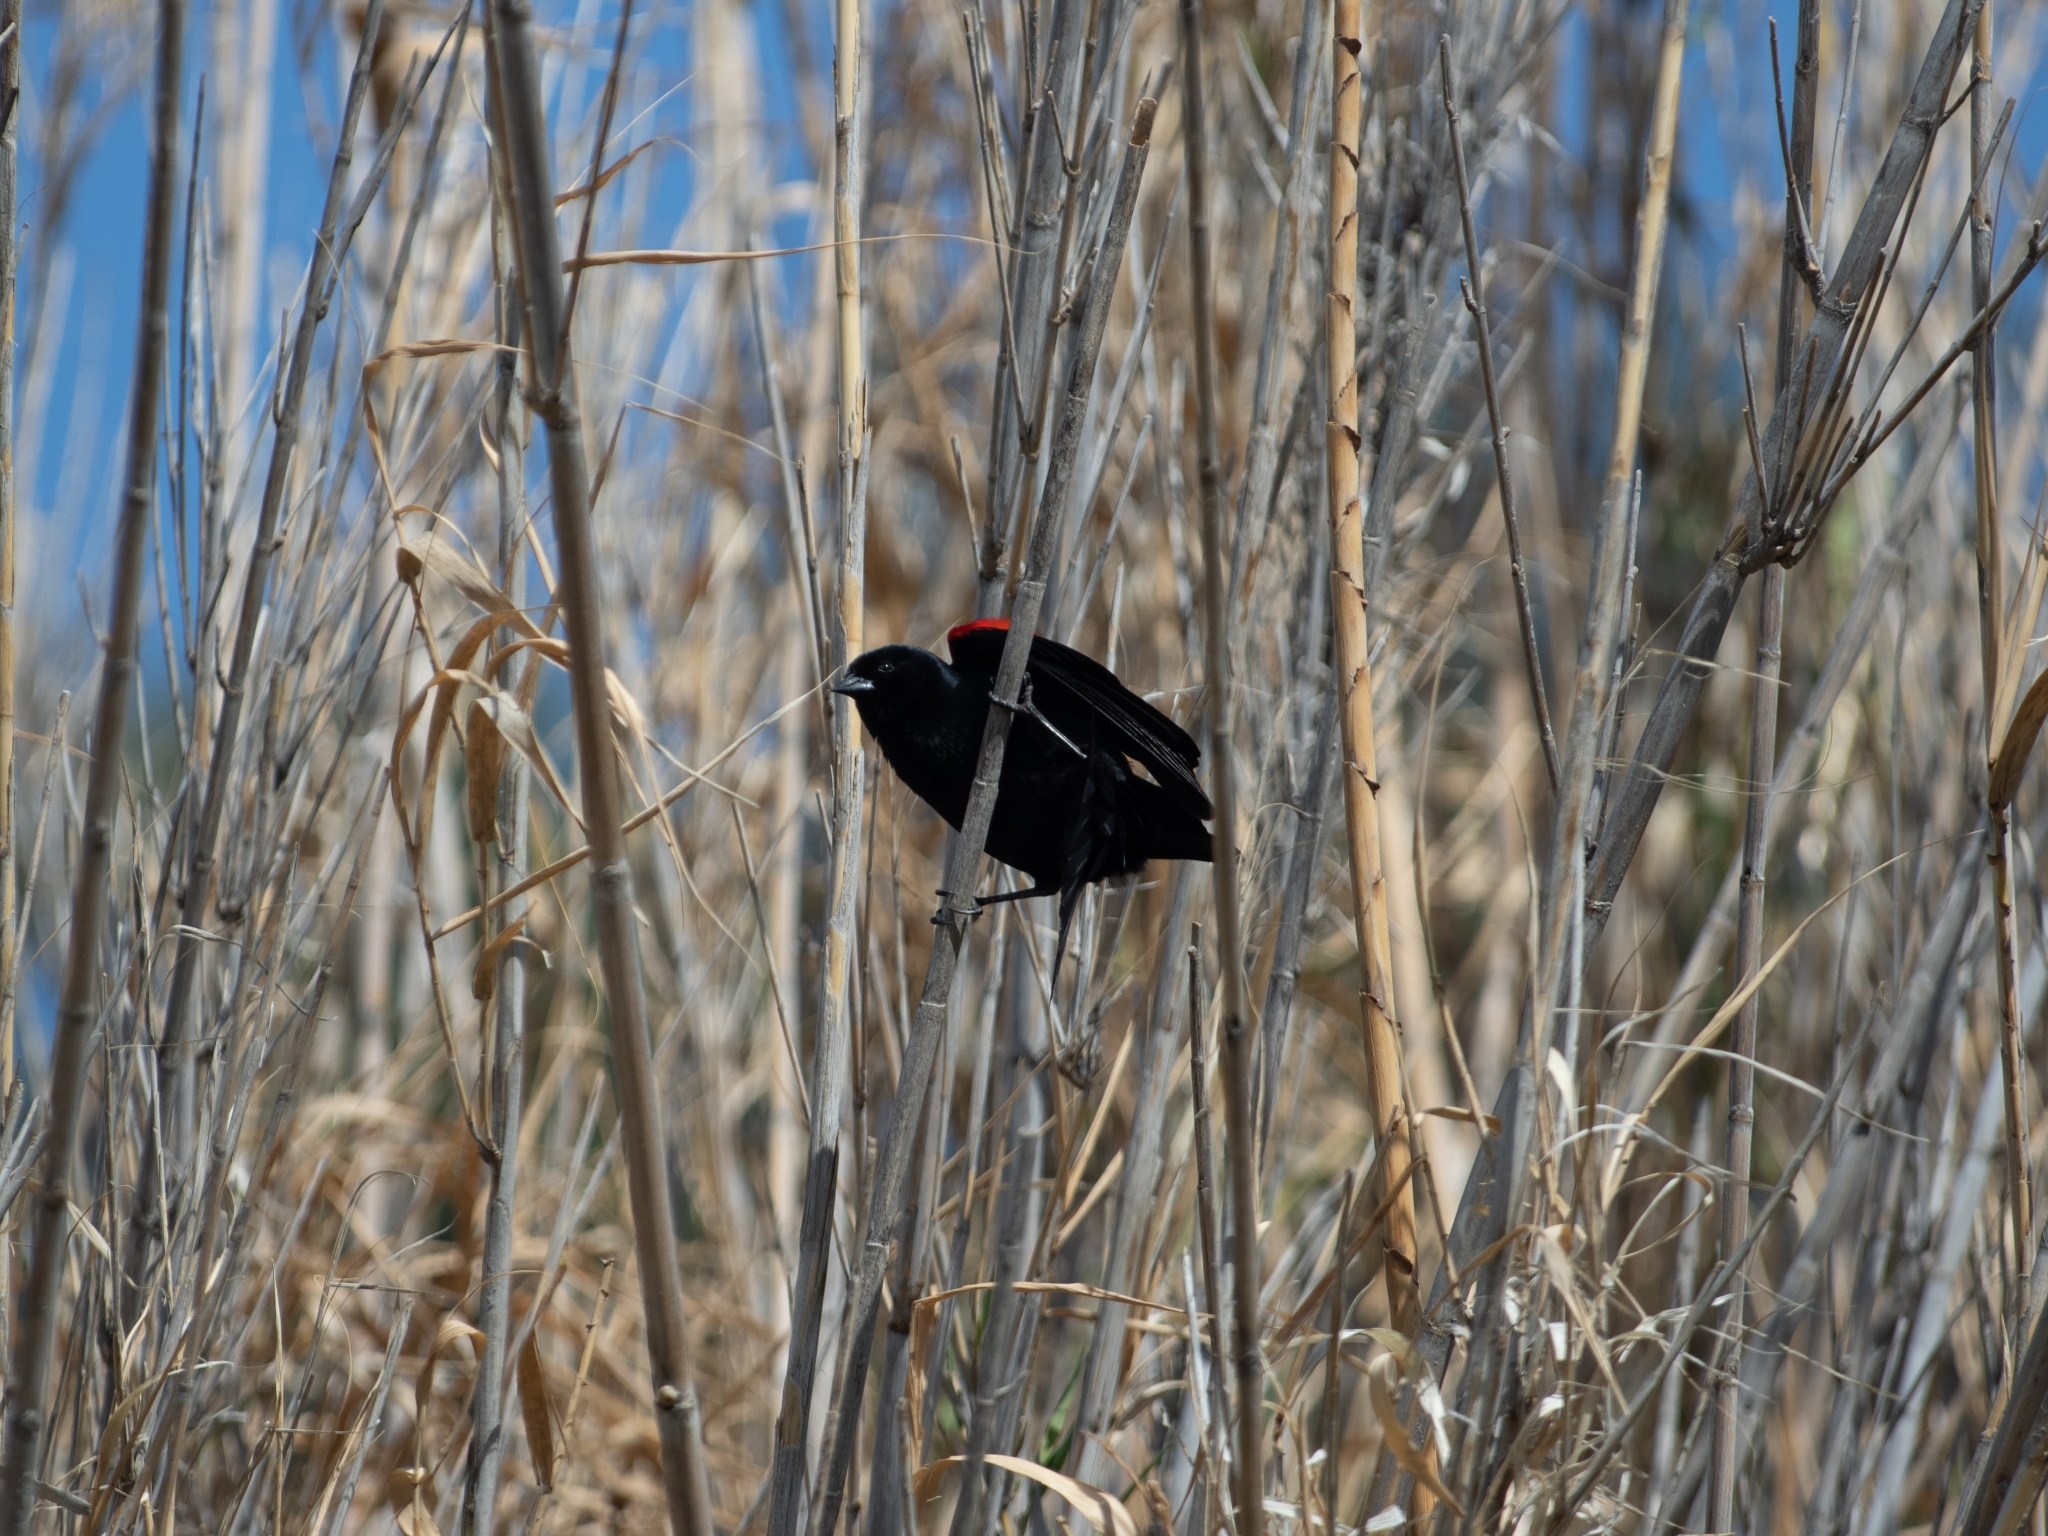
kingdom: Animalia
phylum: Chordata
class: Aves
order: Passeriformes
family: Icteridae
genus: Agelaius
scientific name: Agelaius phoeniceus
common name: Red-winged blackbird
